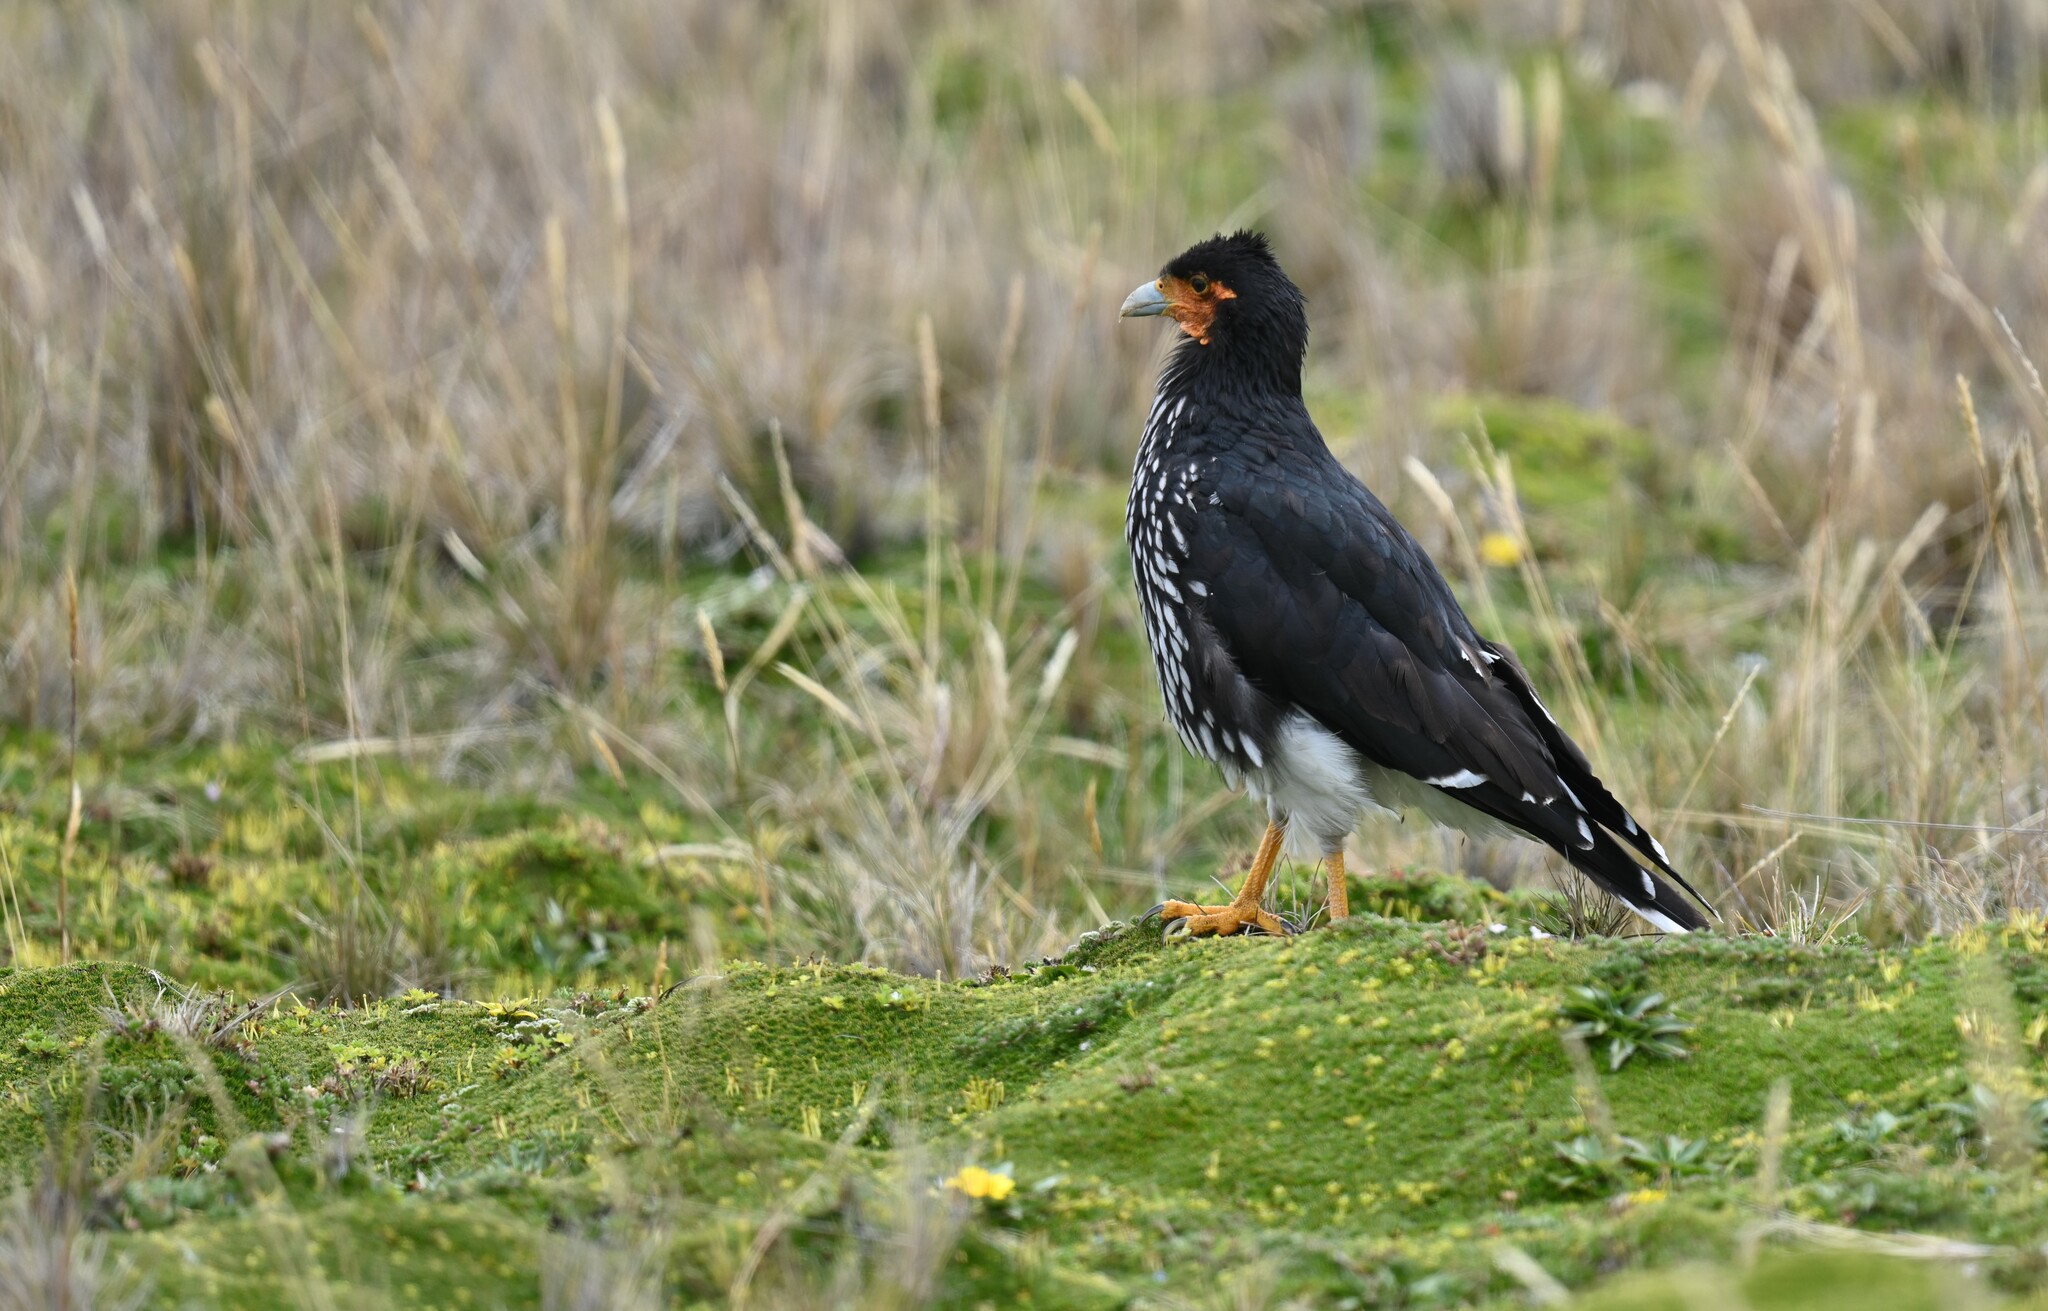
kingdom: Animalia
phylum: Chordata
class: Aves
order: Falconiformes
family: Falconidae
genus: Daptrius
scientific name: Daptrius
